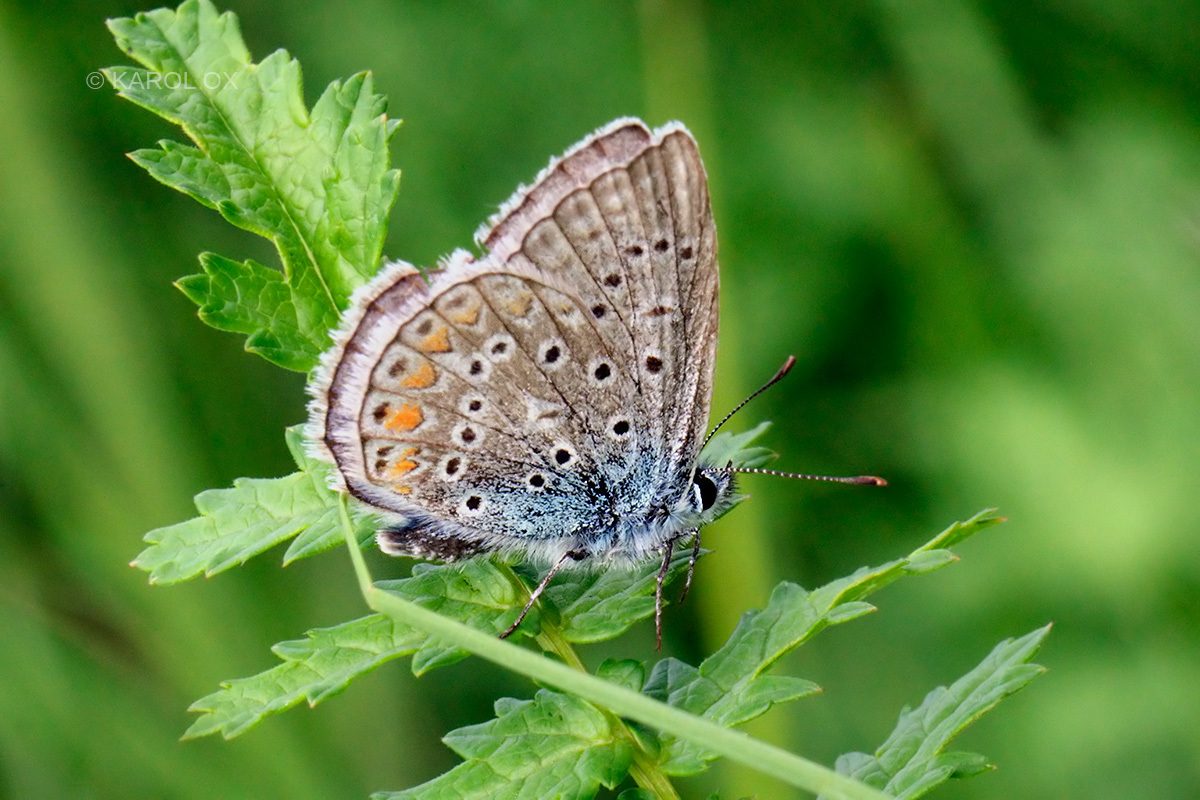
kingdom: Animalia
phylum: Arthropoda
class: Insecta
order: Lepidoptera
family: Lycaenidae
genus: Polyommatus
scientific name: Polyommatus icarus
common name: Common blue
